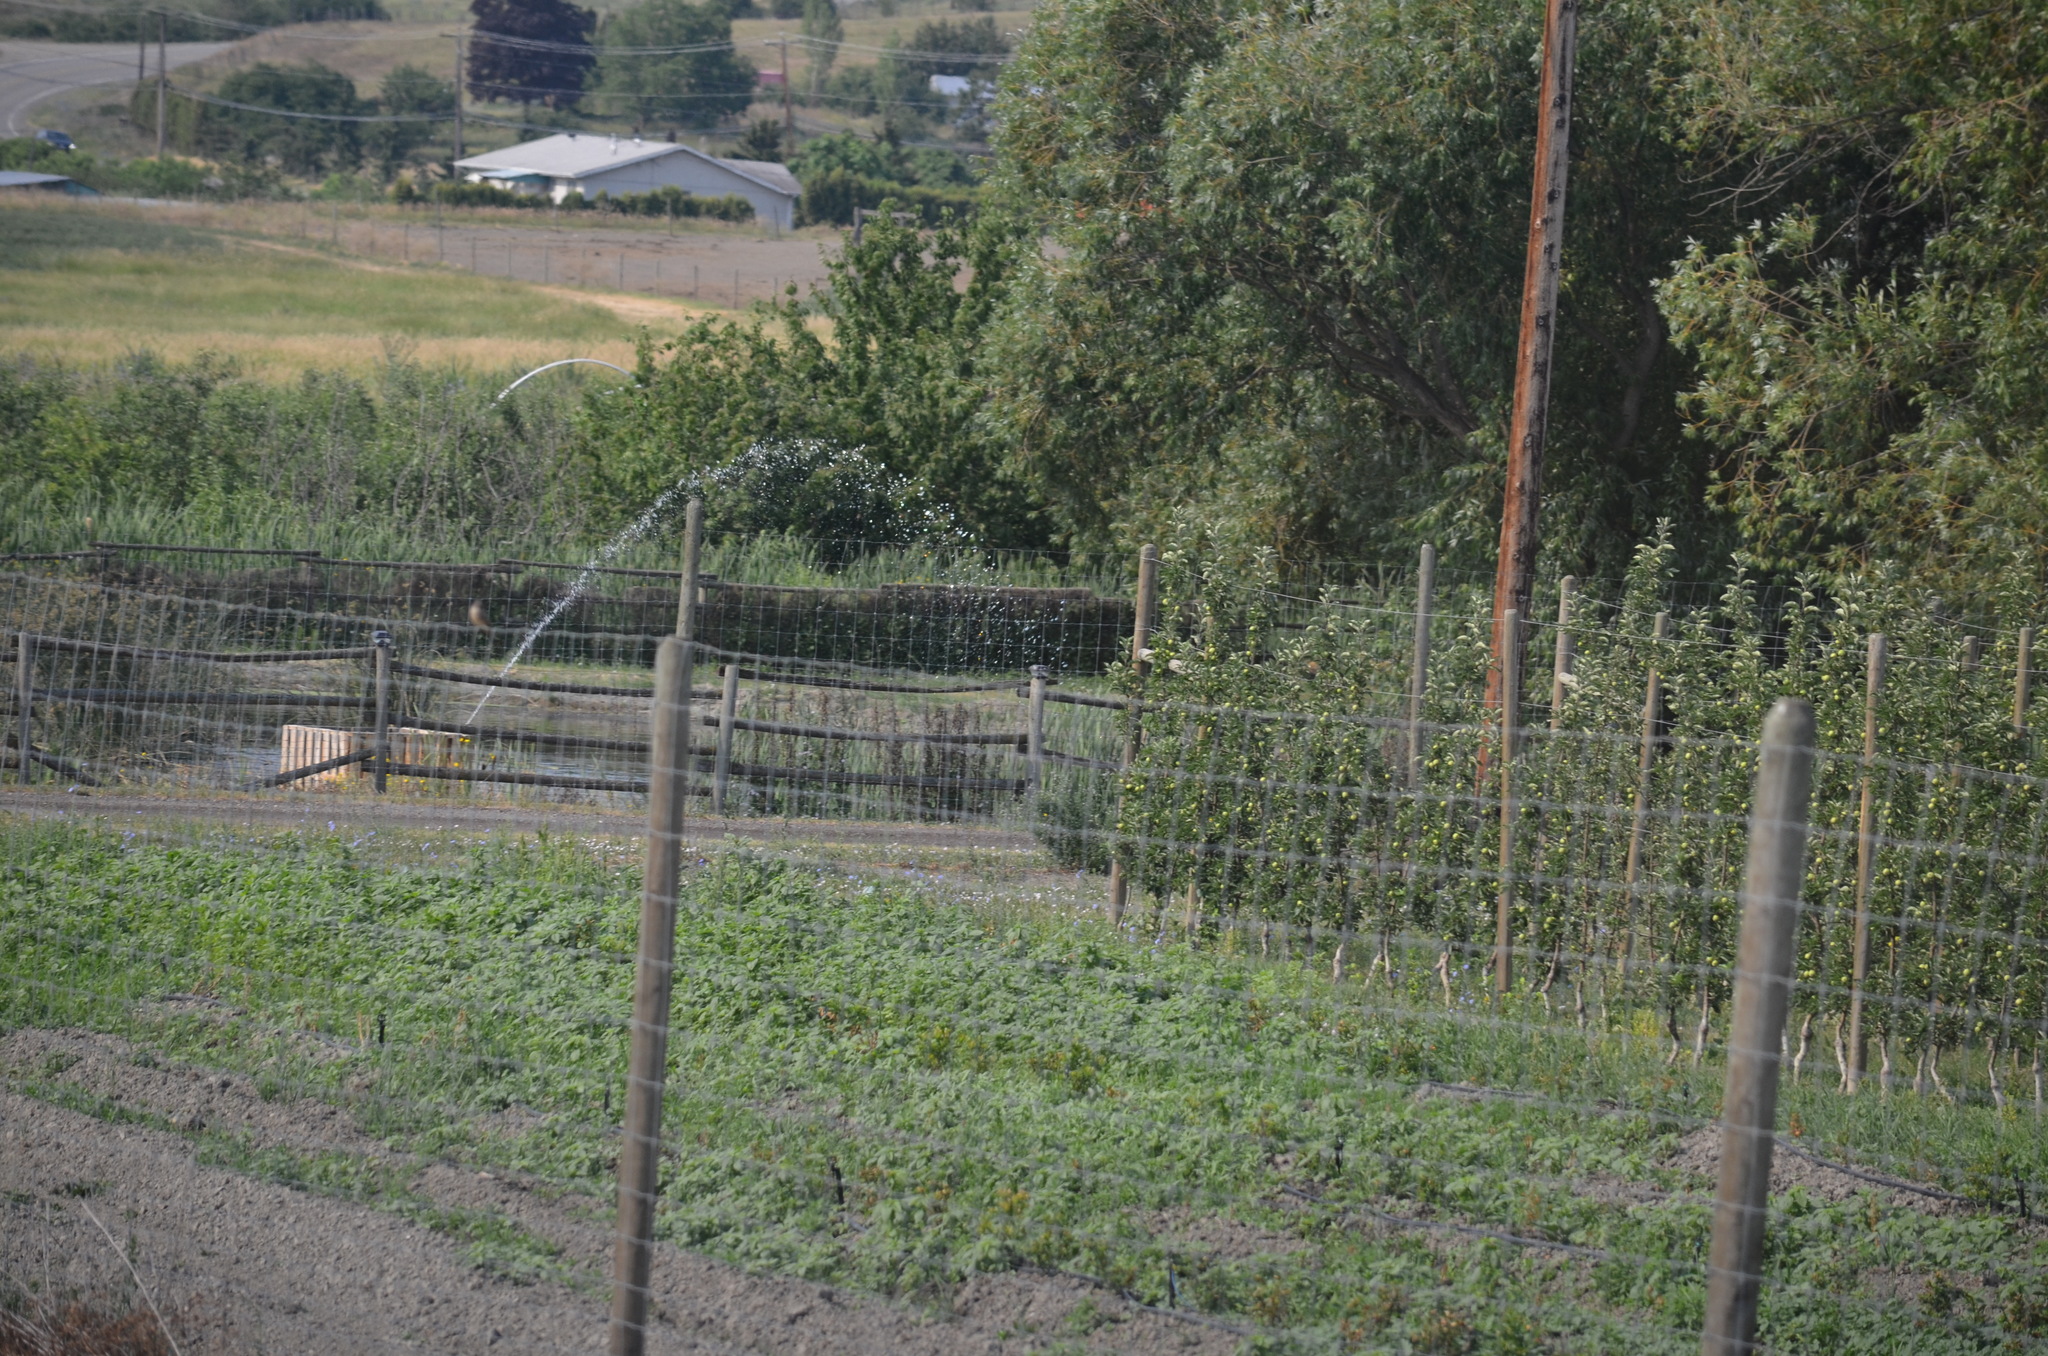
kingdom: Animalia
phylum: Chordata
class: Aves
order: Passeriformes
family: Tyrannidae
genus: Sayornis
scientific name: Sayornis saya
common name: Say's phoebe
